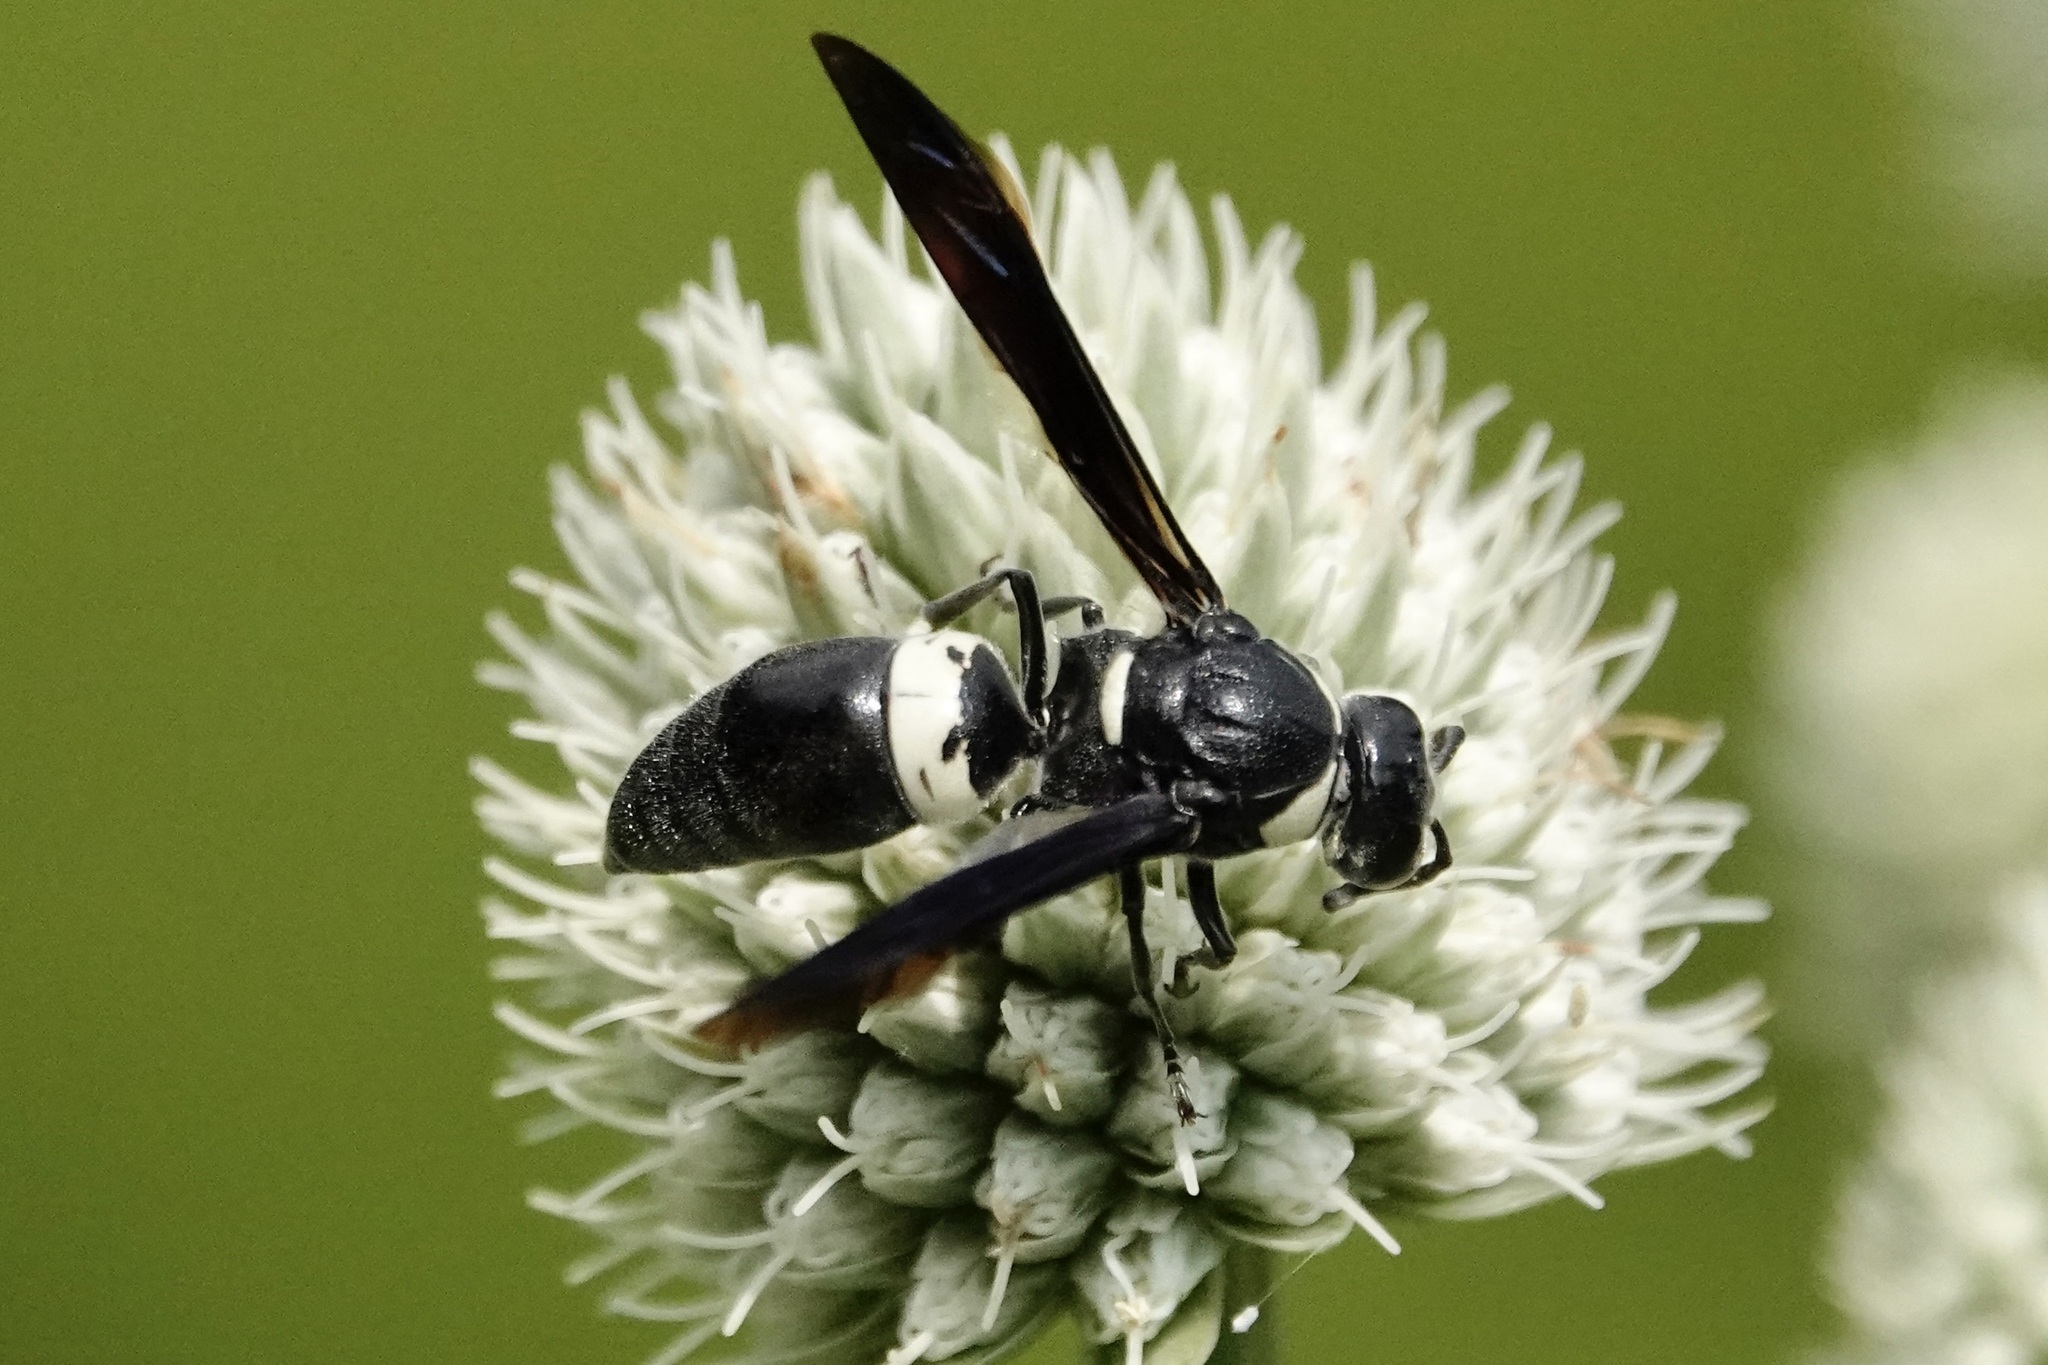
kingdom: Animalia
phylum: Arthropoda
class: Insecta
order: Hymenoptera
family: Eumenidae
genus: Monobia
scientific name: Monobia quadridens
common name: Four-toothed mason wasp
